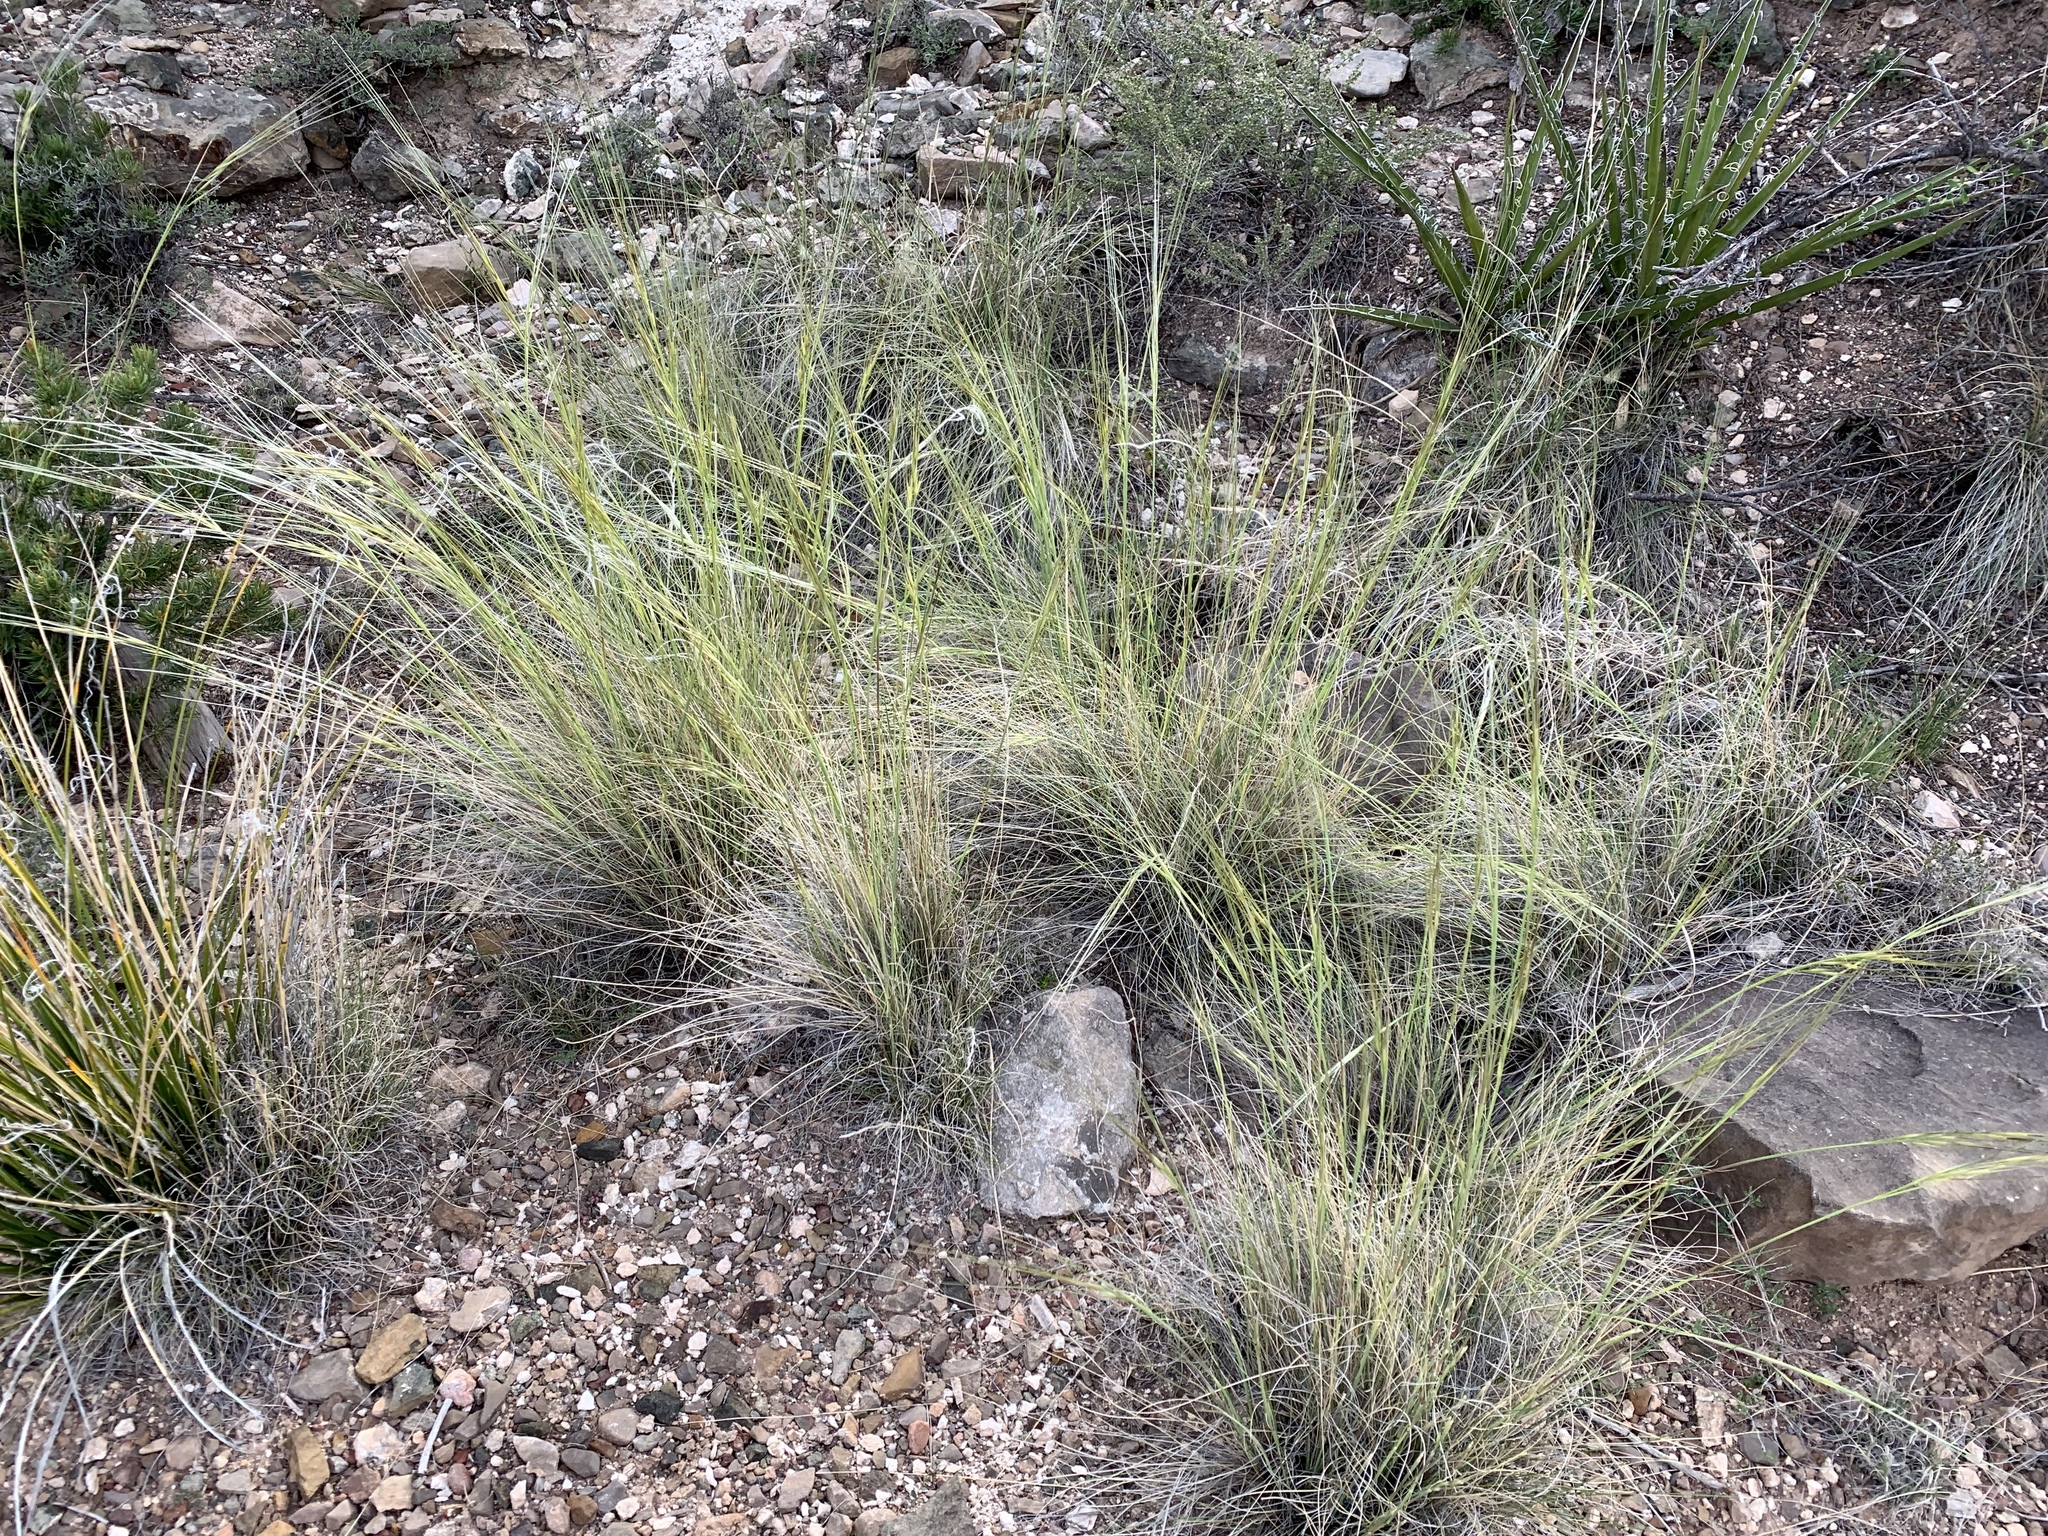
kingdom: Plantae
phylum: Tracheophyta
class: Liliopsida
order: Poales
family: Poaceae
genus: Hesperostipa
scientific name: Hesperostipa comata
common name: Needle-and-thread grass
